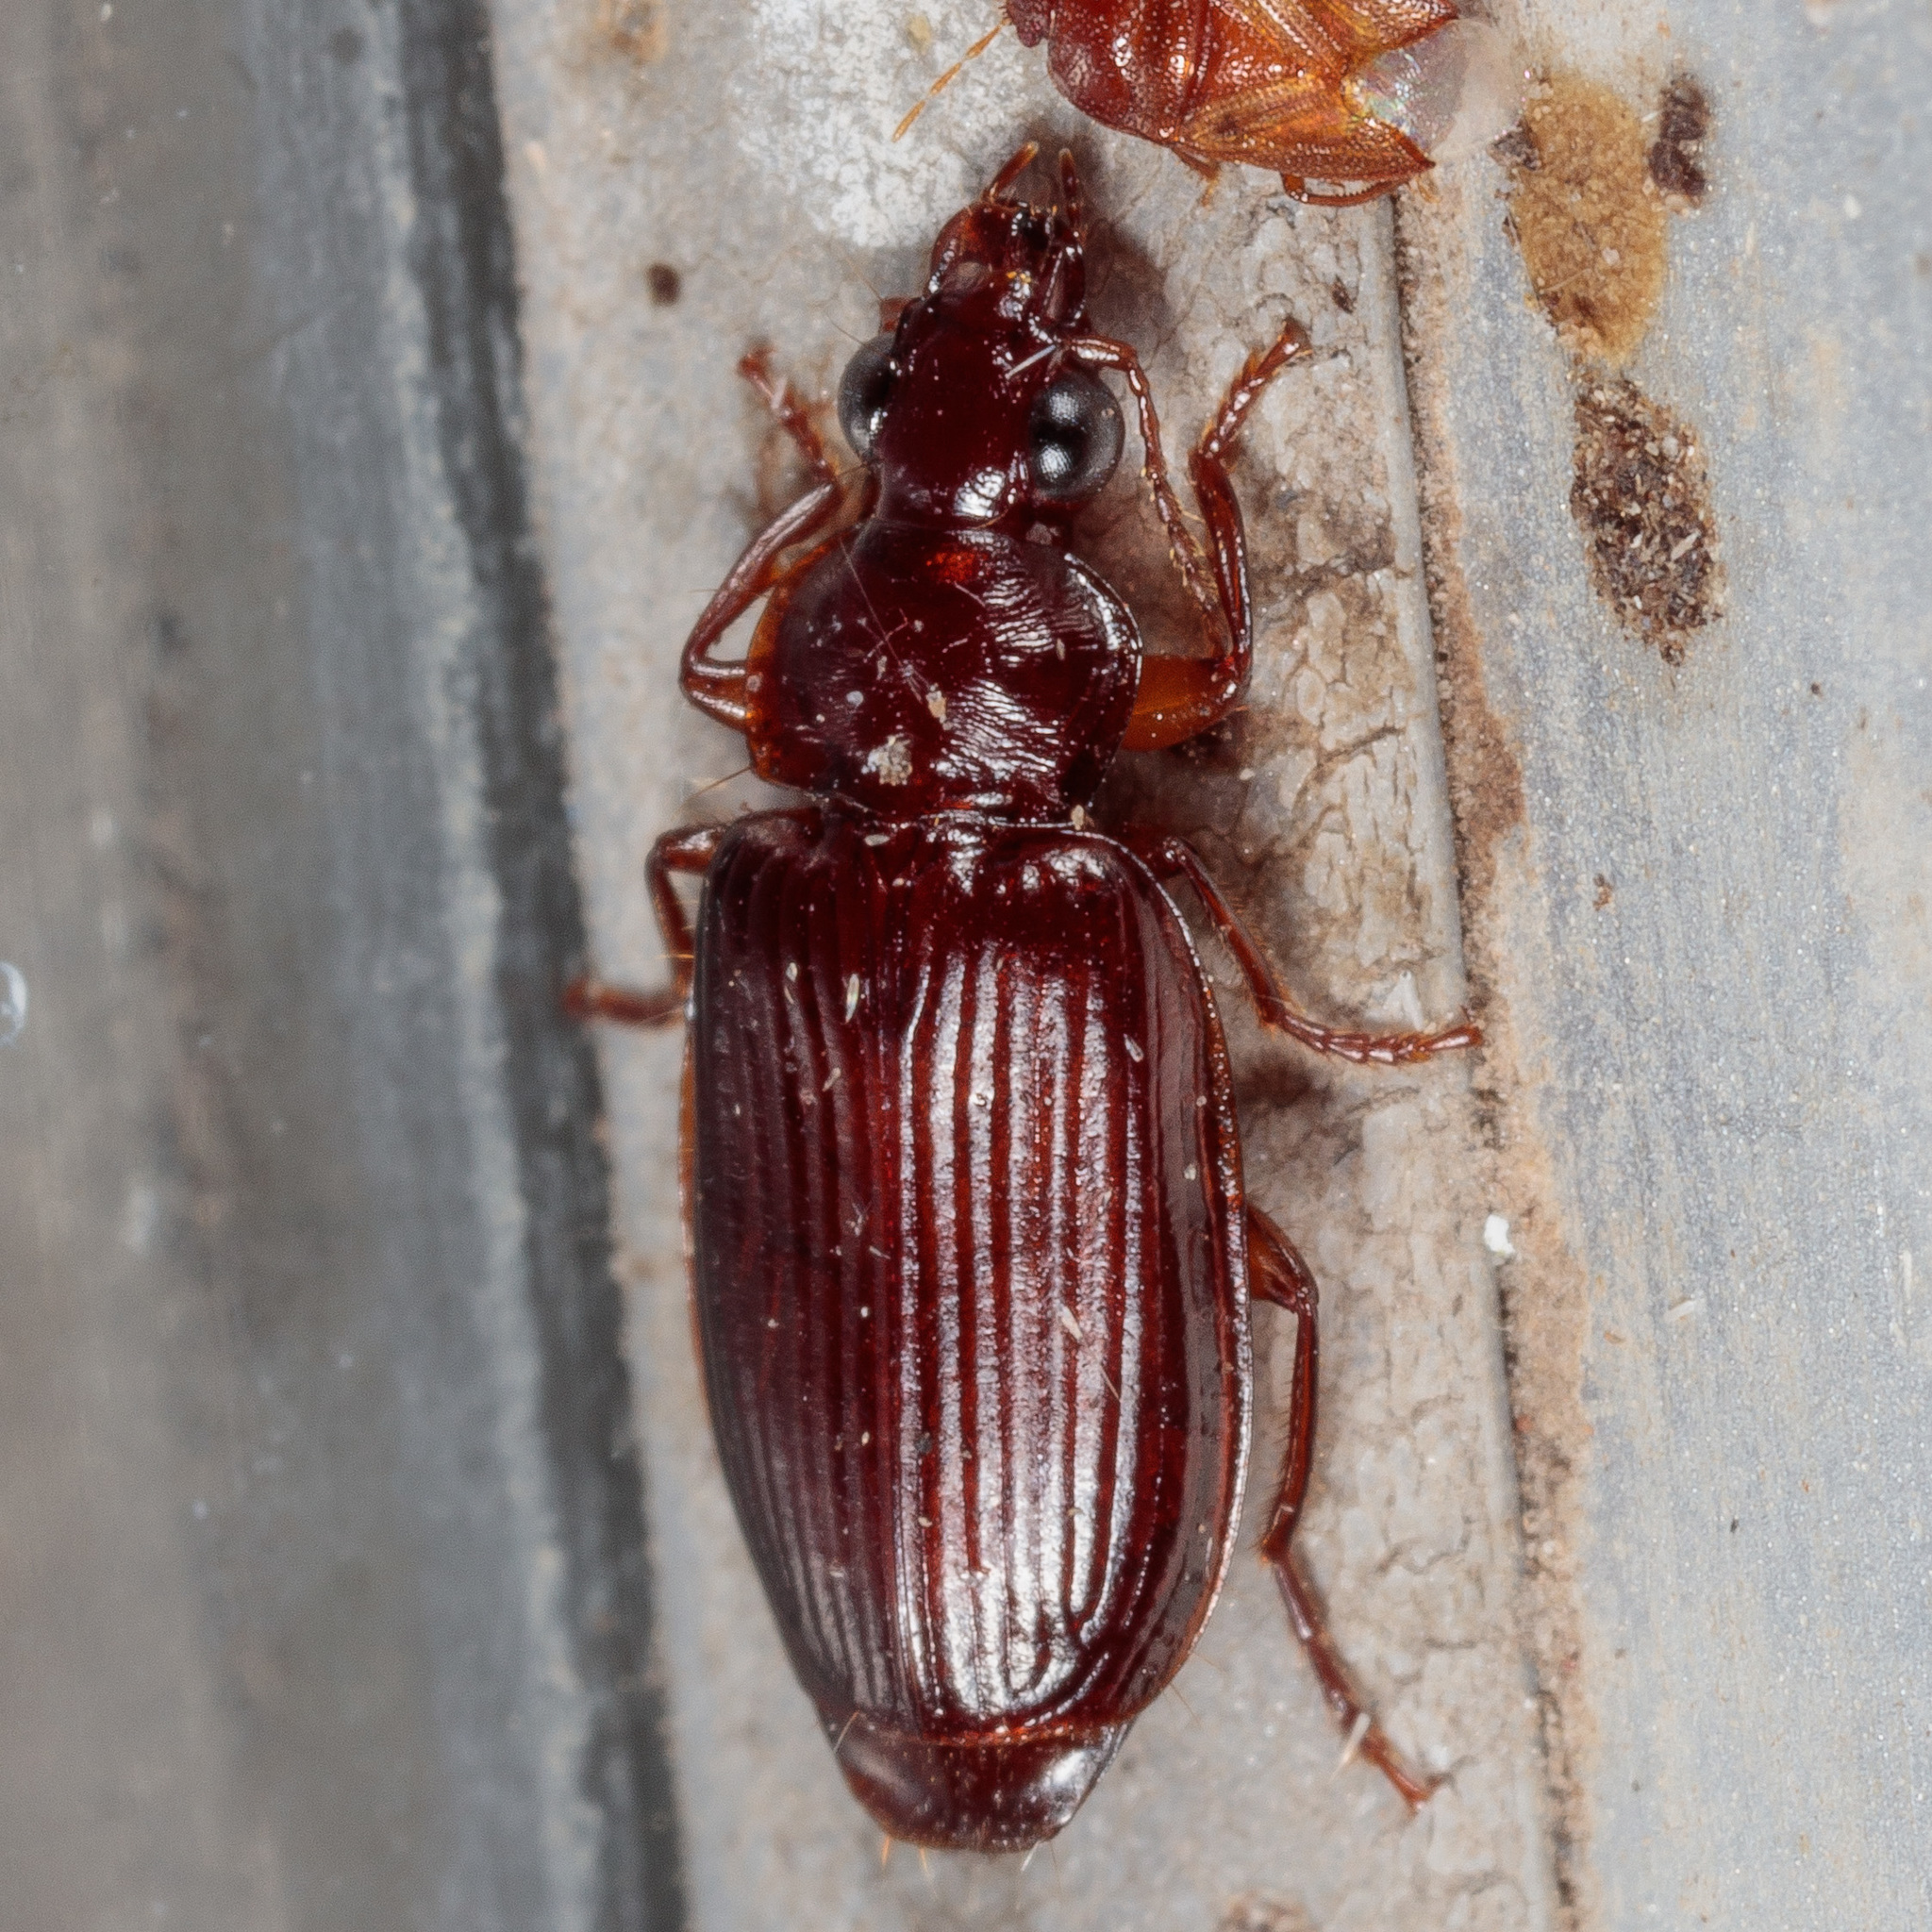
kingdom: Animalia
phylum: Arthropoda
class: Insecta
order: Coleoptera
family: Carabidae
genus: Plochionus
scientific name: Plochionus timidus
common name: Timid harp ground beetle
